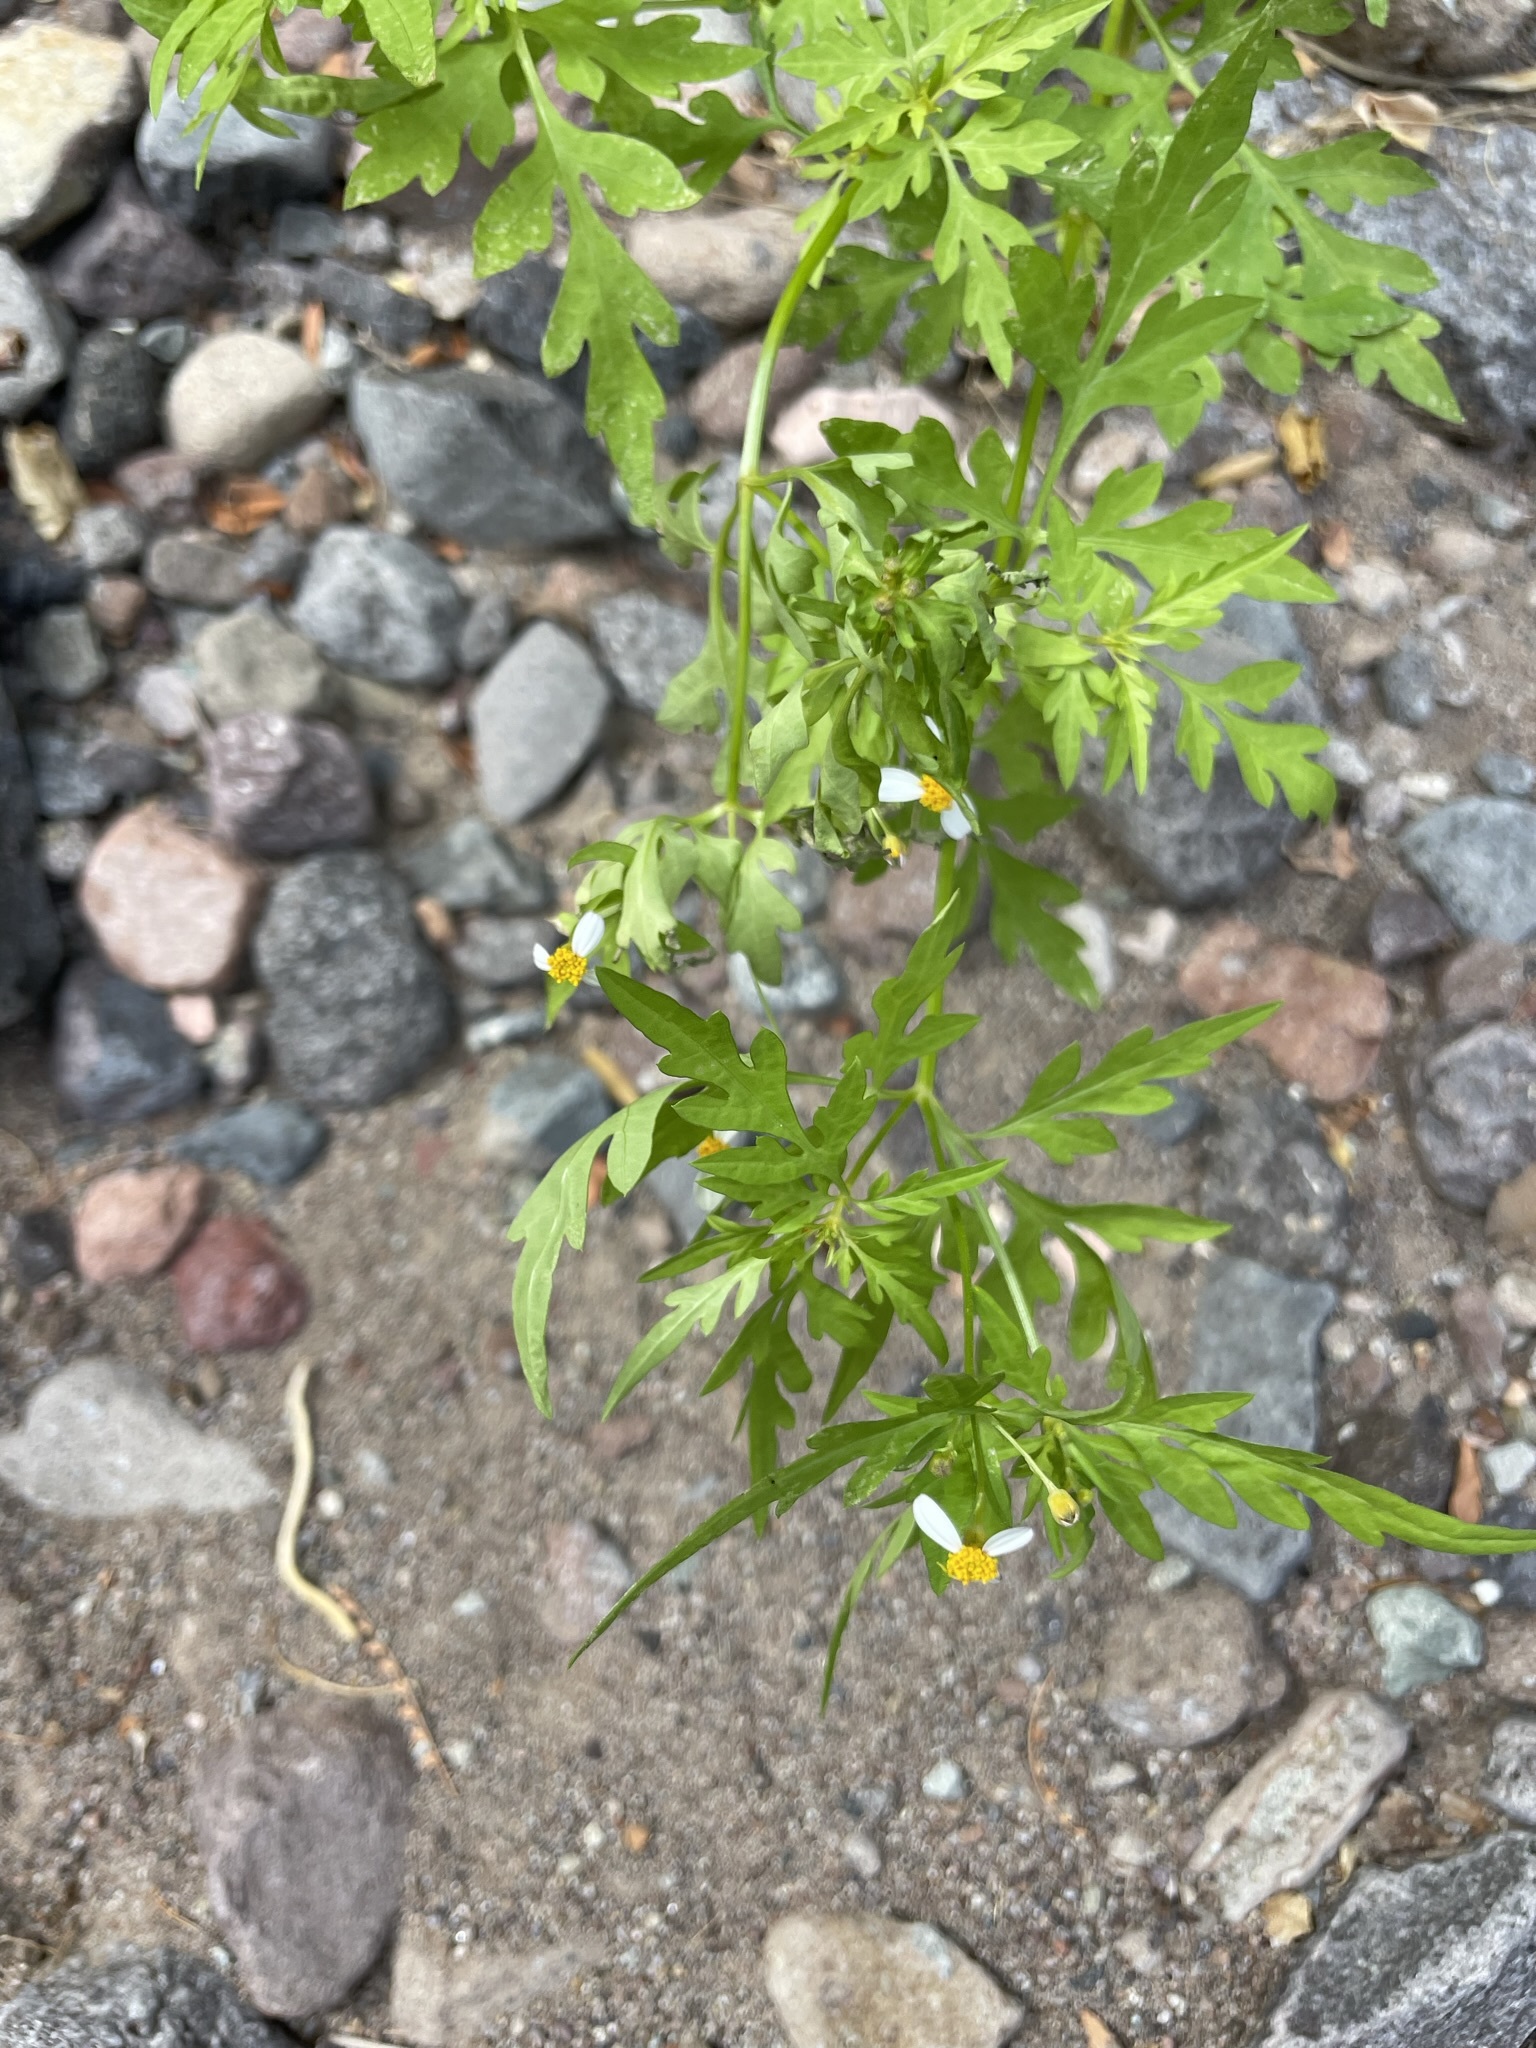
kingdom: Plantae
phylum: Tracheophyta
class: Magnoliopsida
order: Asterales
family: Asteraceae
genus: Coreocarpus
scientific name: Coreocarpus parthenioides
